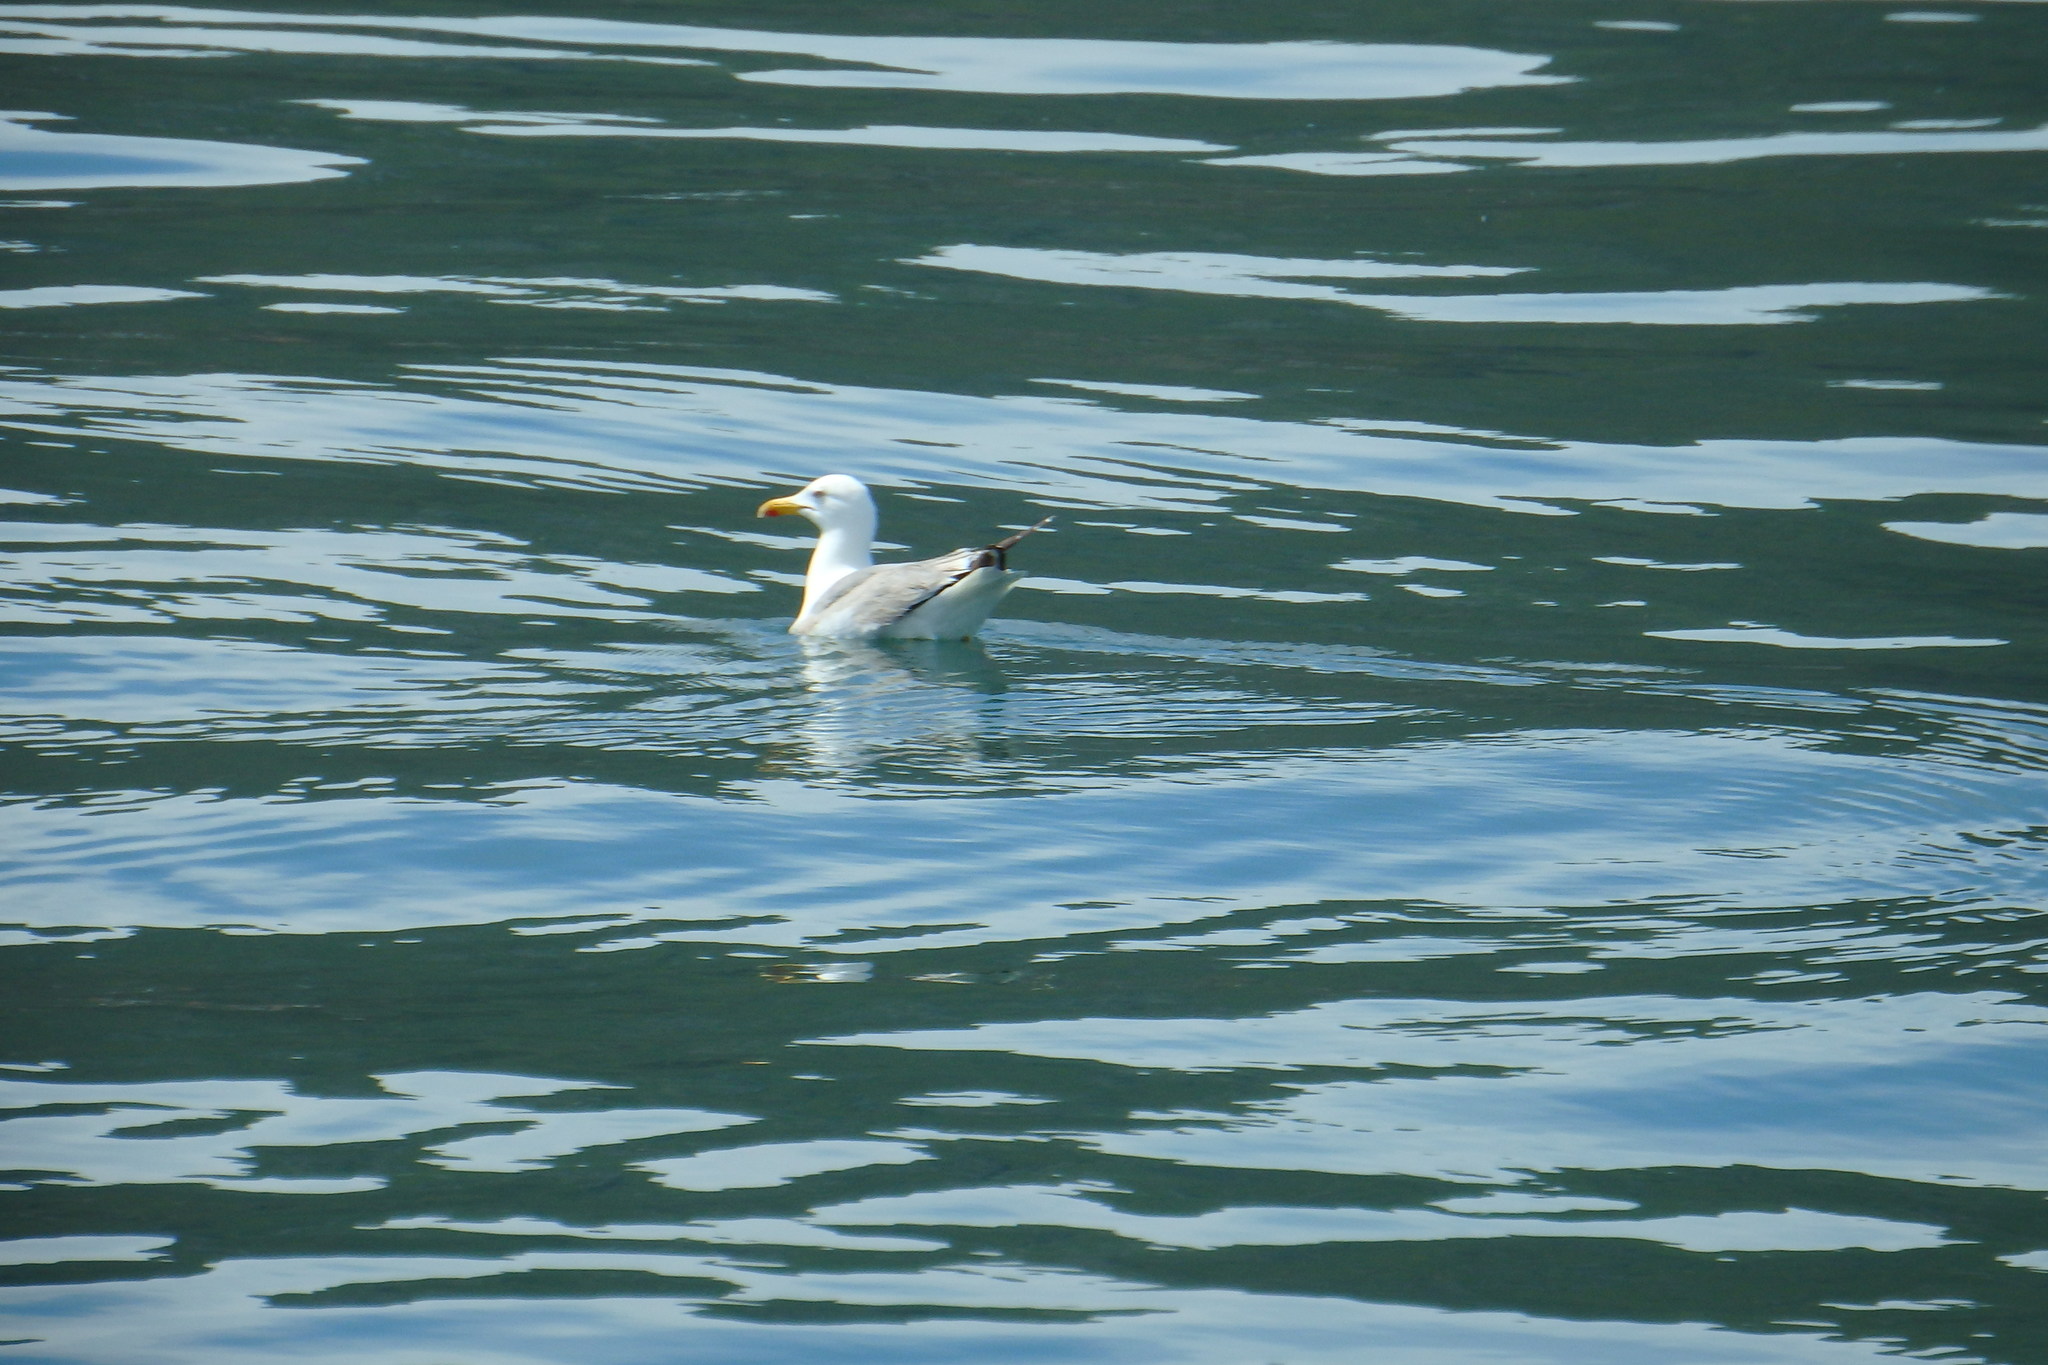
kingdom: Animalia
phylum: Chordata
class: Aves
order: Charadriiformes
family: Laridae
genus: Larus
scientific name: Larus michahellis
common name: Yellow-legged gull
